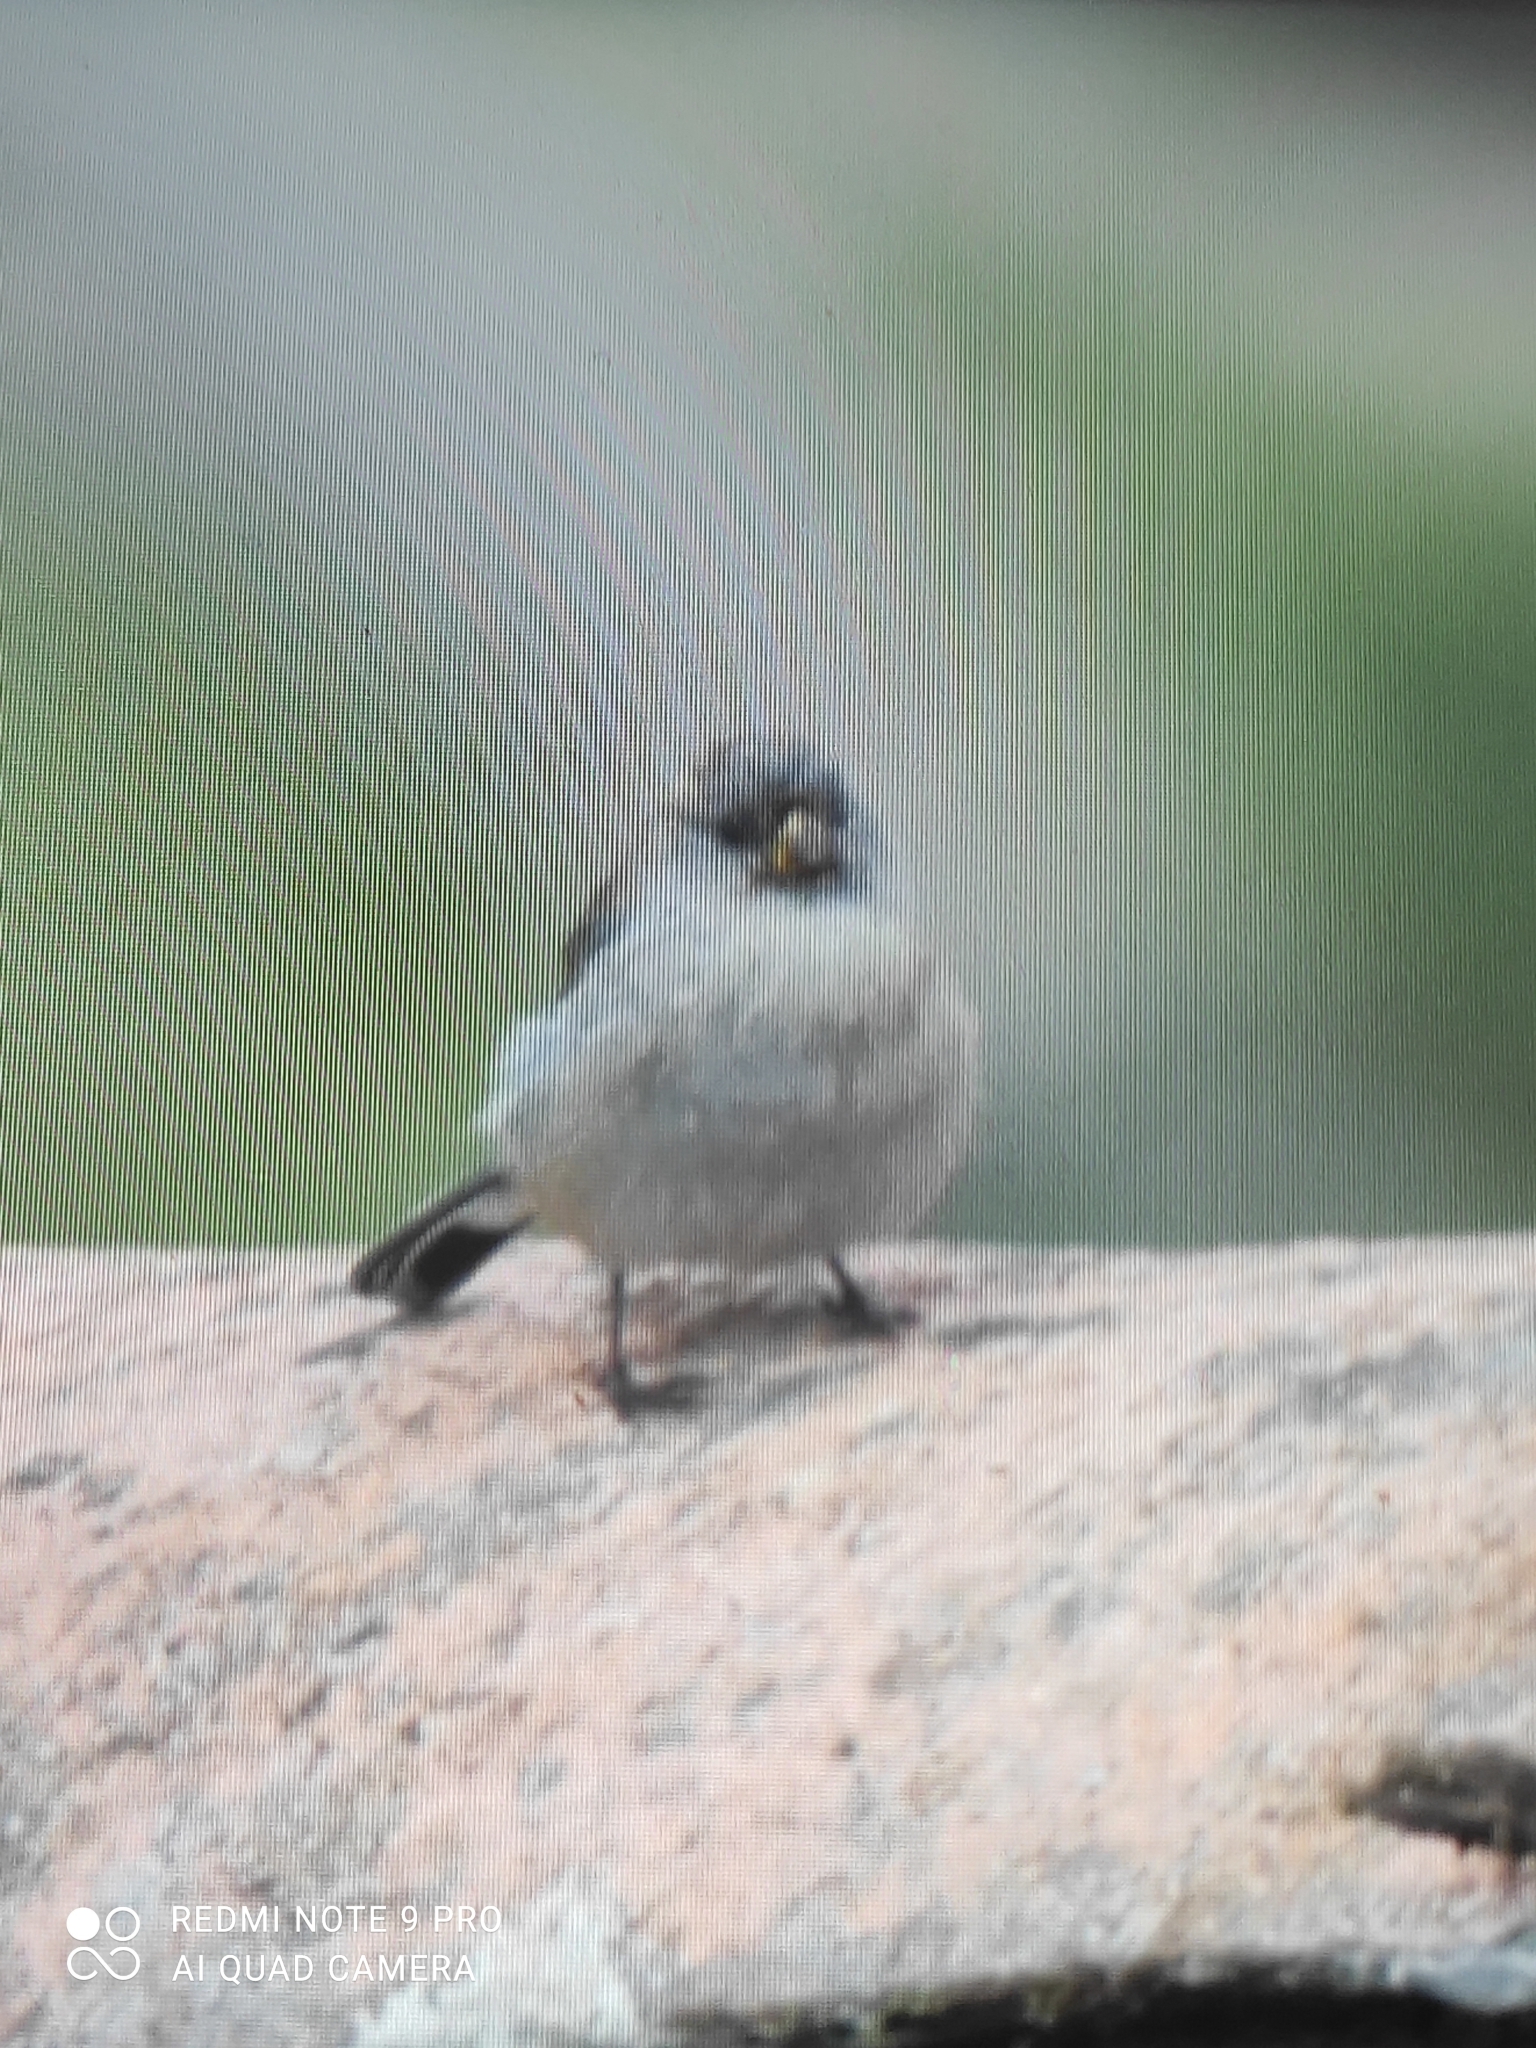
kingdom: Animalia
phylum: Chordata
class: Aves
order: Passeriformes
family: Thraupidae
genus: Catamenia
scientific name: Catamenia analis
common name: Band-tailed seedeater
